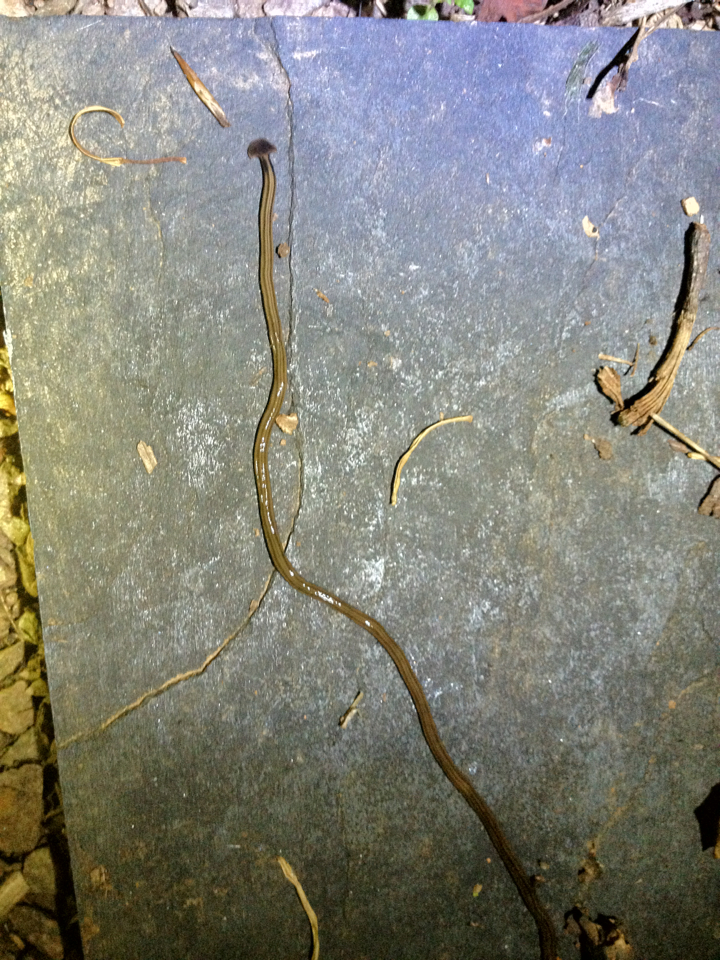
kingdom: Animalia
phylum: Platyhelminthes
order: Tricladida
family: Geoplanidae
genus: Bipalium
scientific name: Bipalium kewense
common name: Hammerhead flatworm
